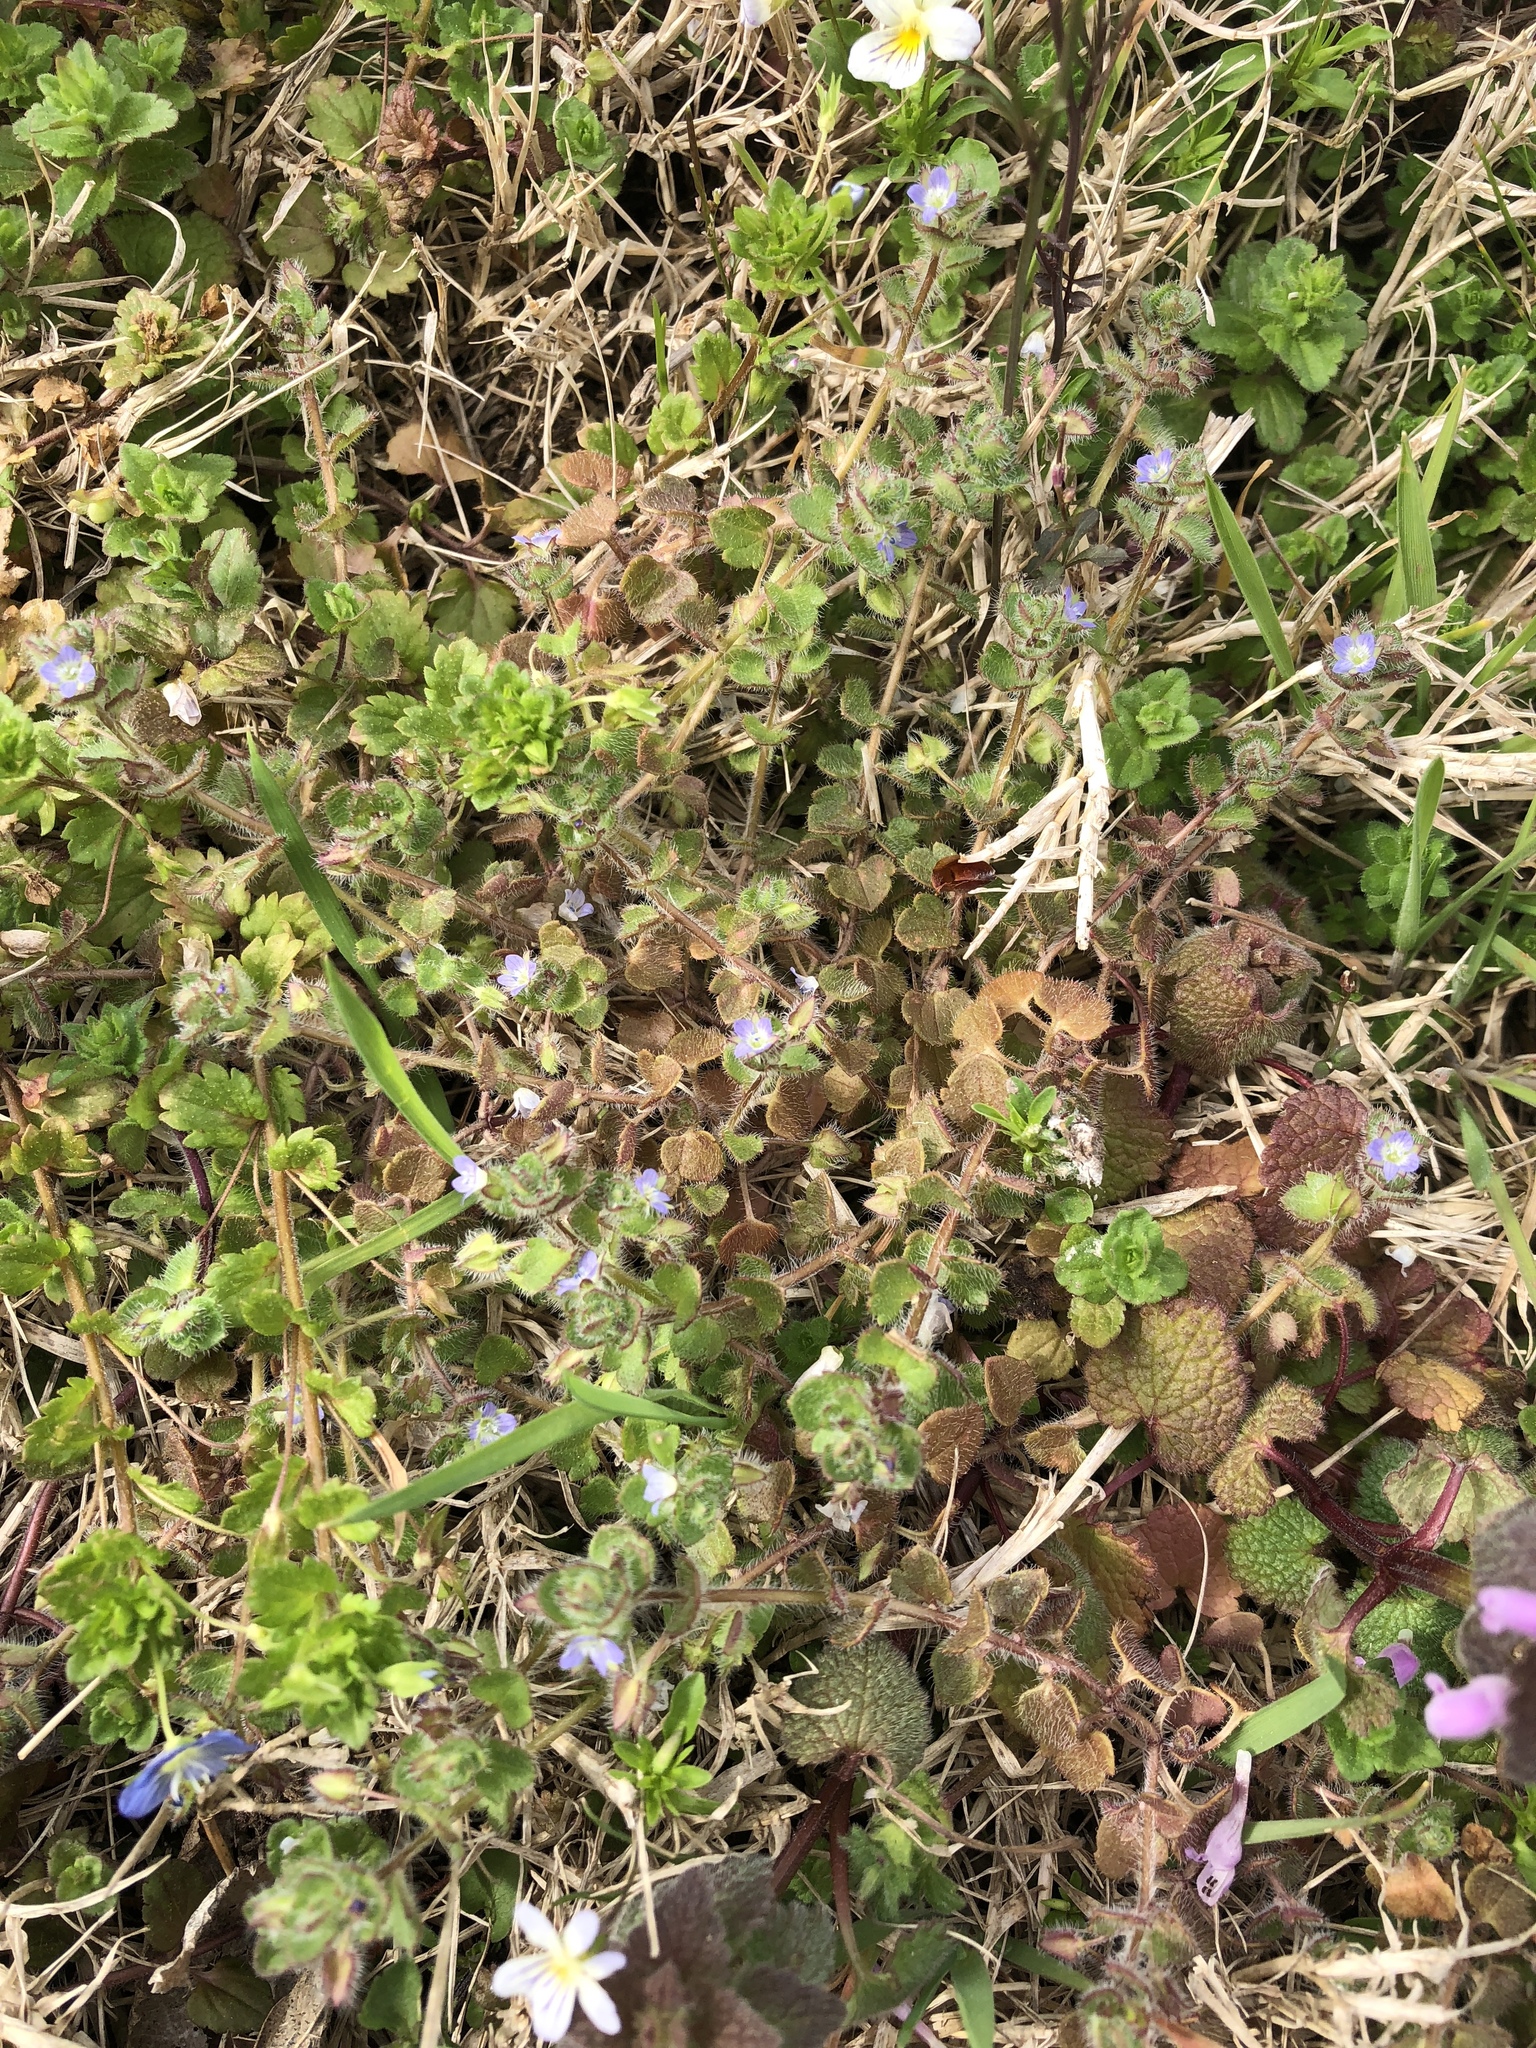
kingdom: Plantae
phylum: Tracheophyta
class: Magnoliopsida
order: Lamiales
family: Plantaginaceae
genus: Veronica
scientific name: Veronica hederifolia
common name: Ivy-leaved speedwell
